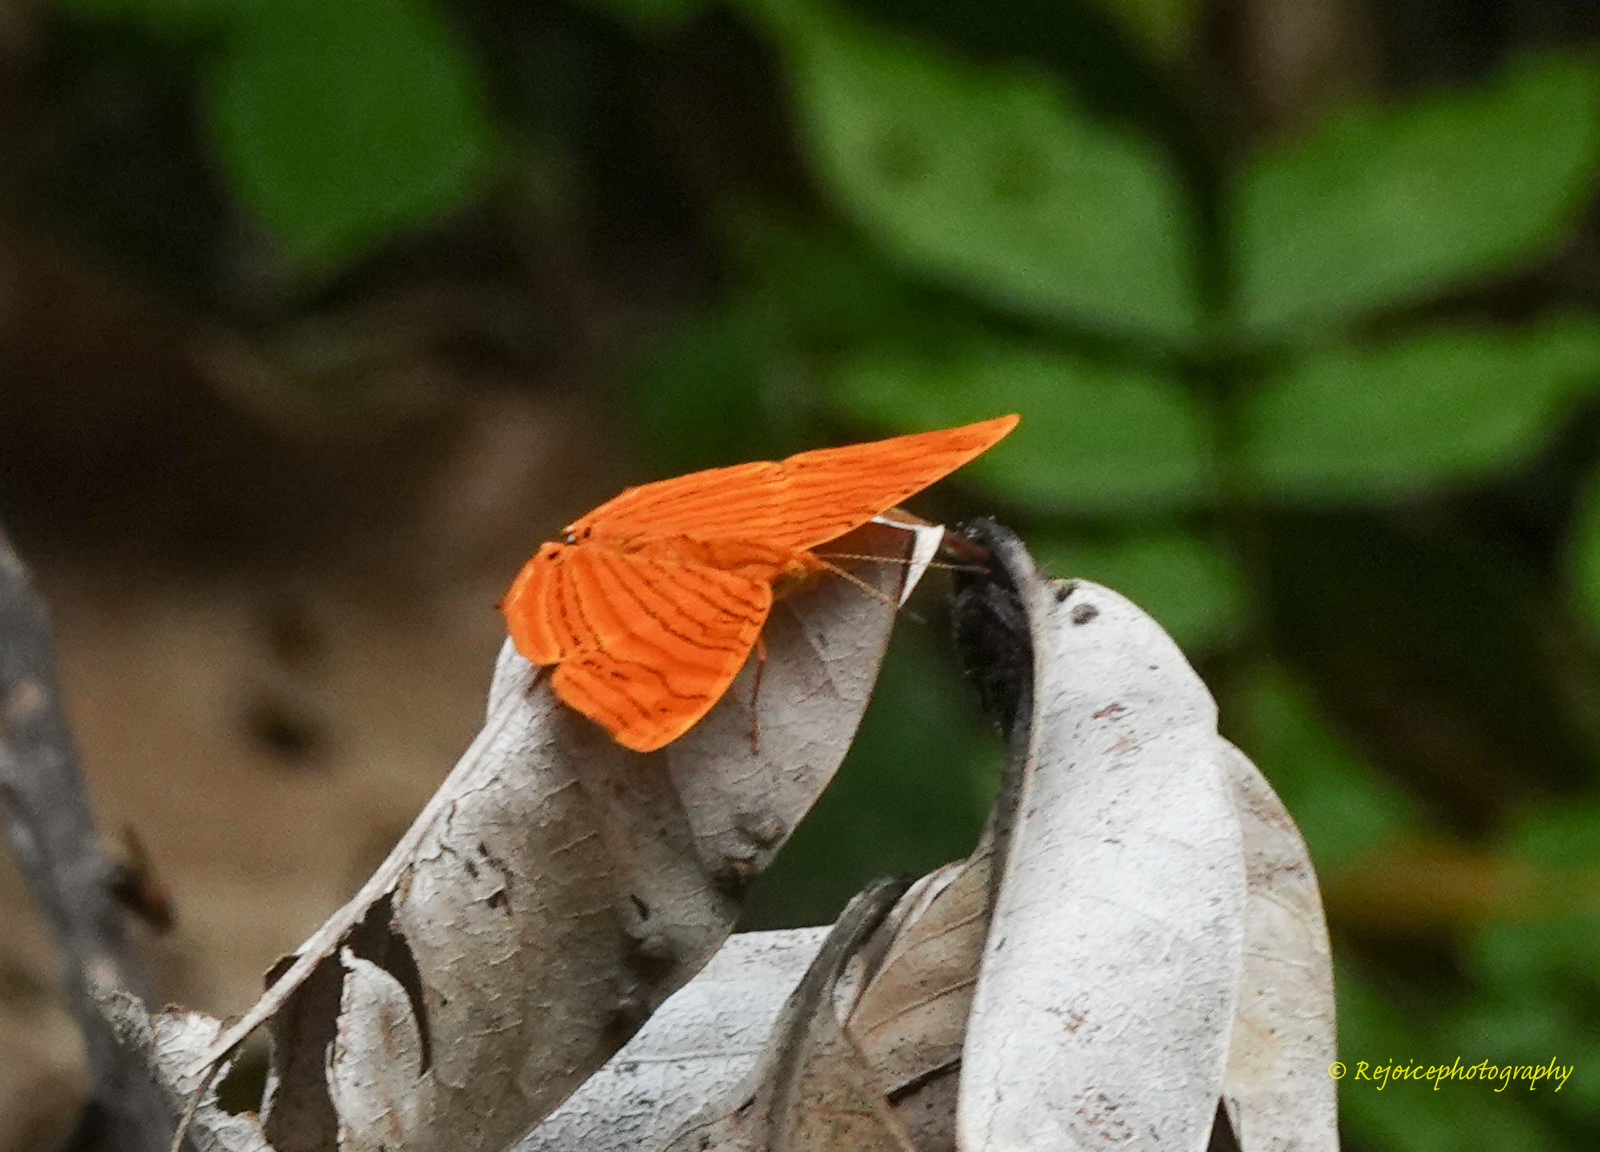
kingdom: Animalia
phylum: Arthropoda
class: Insecta
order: Lepidoptera
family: Nymphalidae
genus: Chersonesia
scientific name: Chersonesia rahria
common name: Wavy maplet
